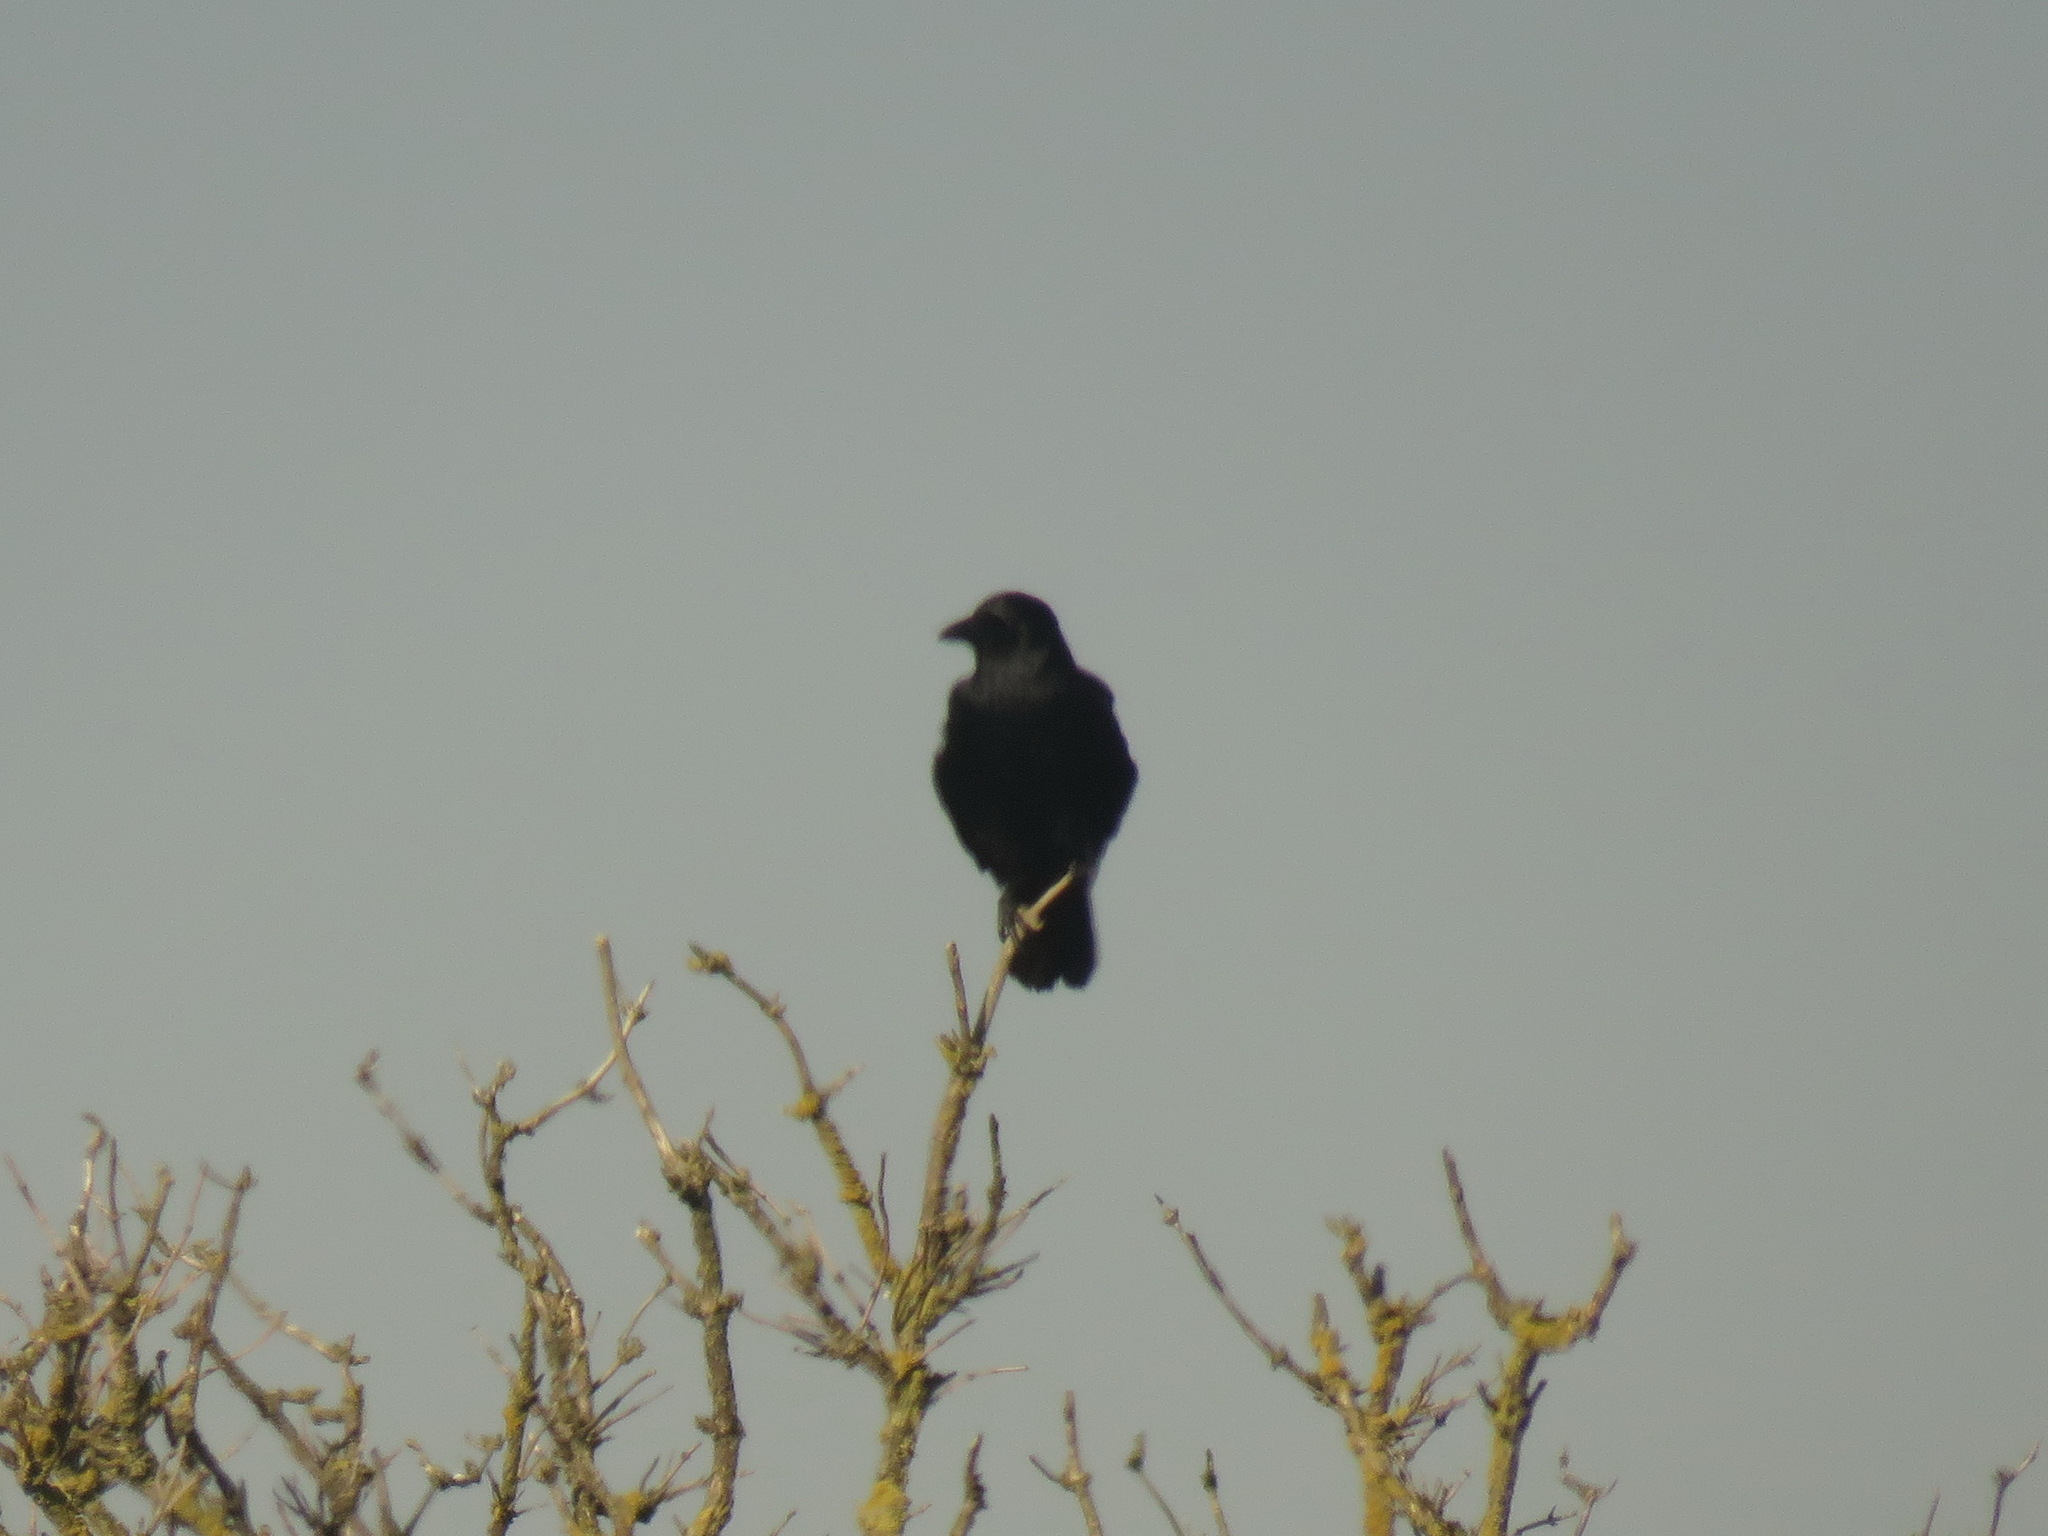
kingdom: Animalia
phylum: Chordata
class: Aves
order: Passeriformes
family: Corvidae
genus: Corvus
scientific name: Corvus corone
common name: Carrion crow
